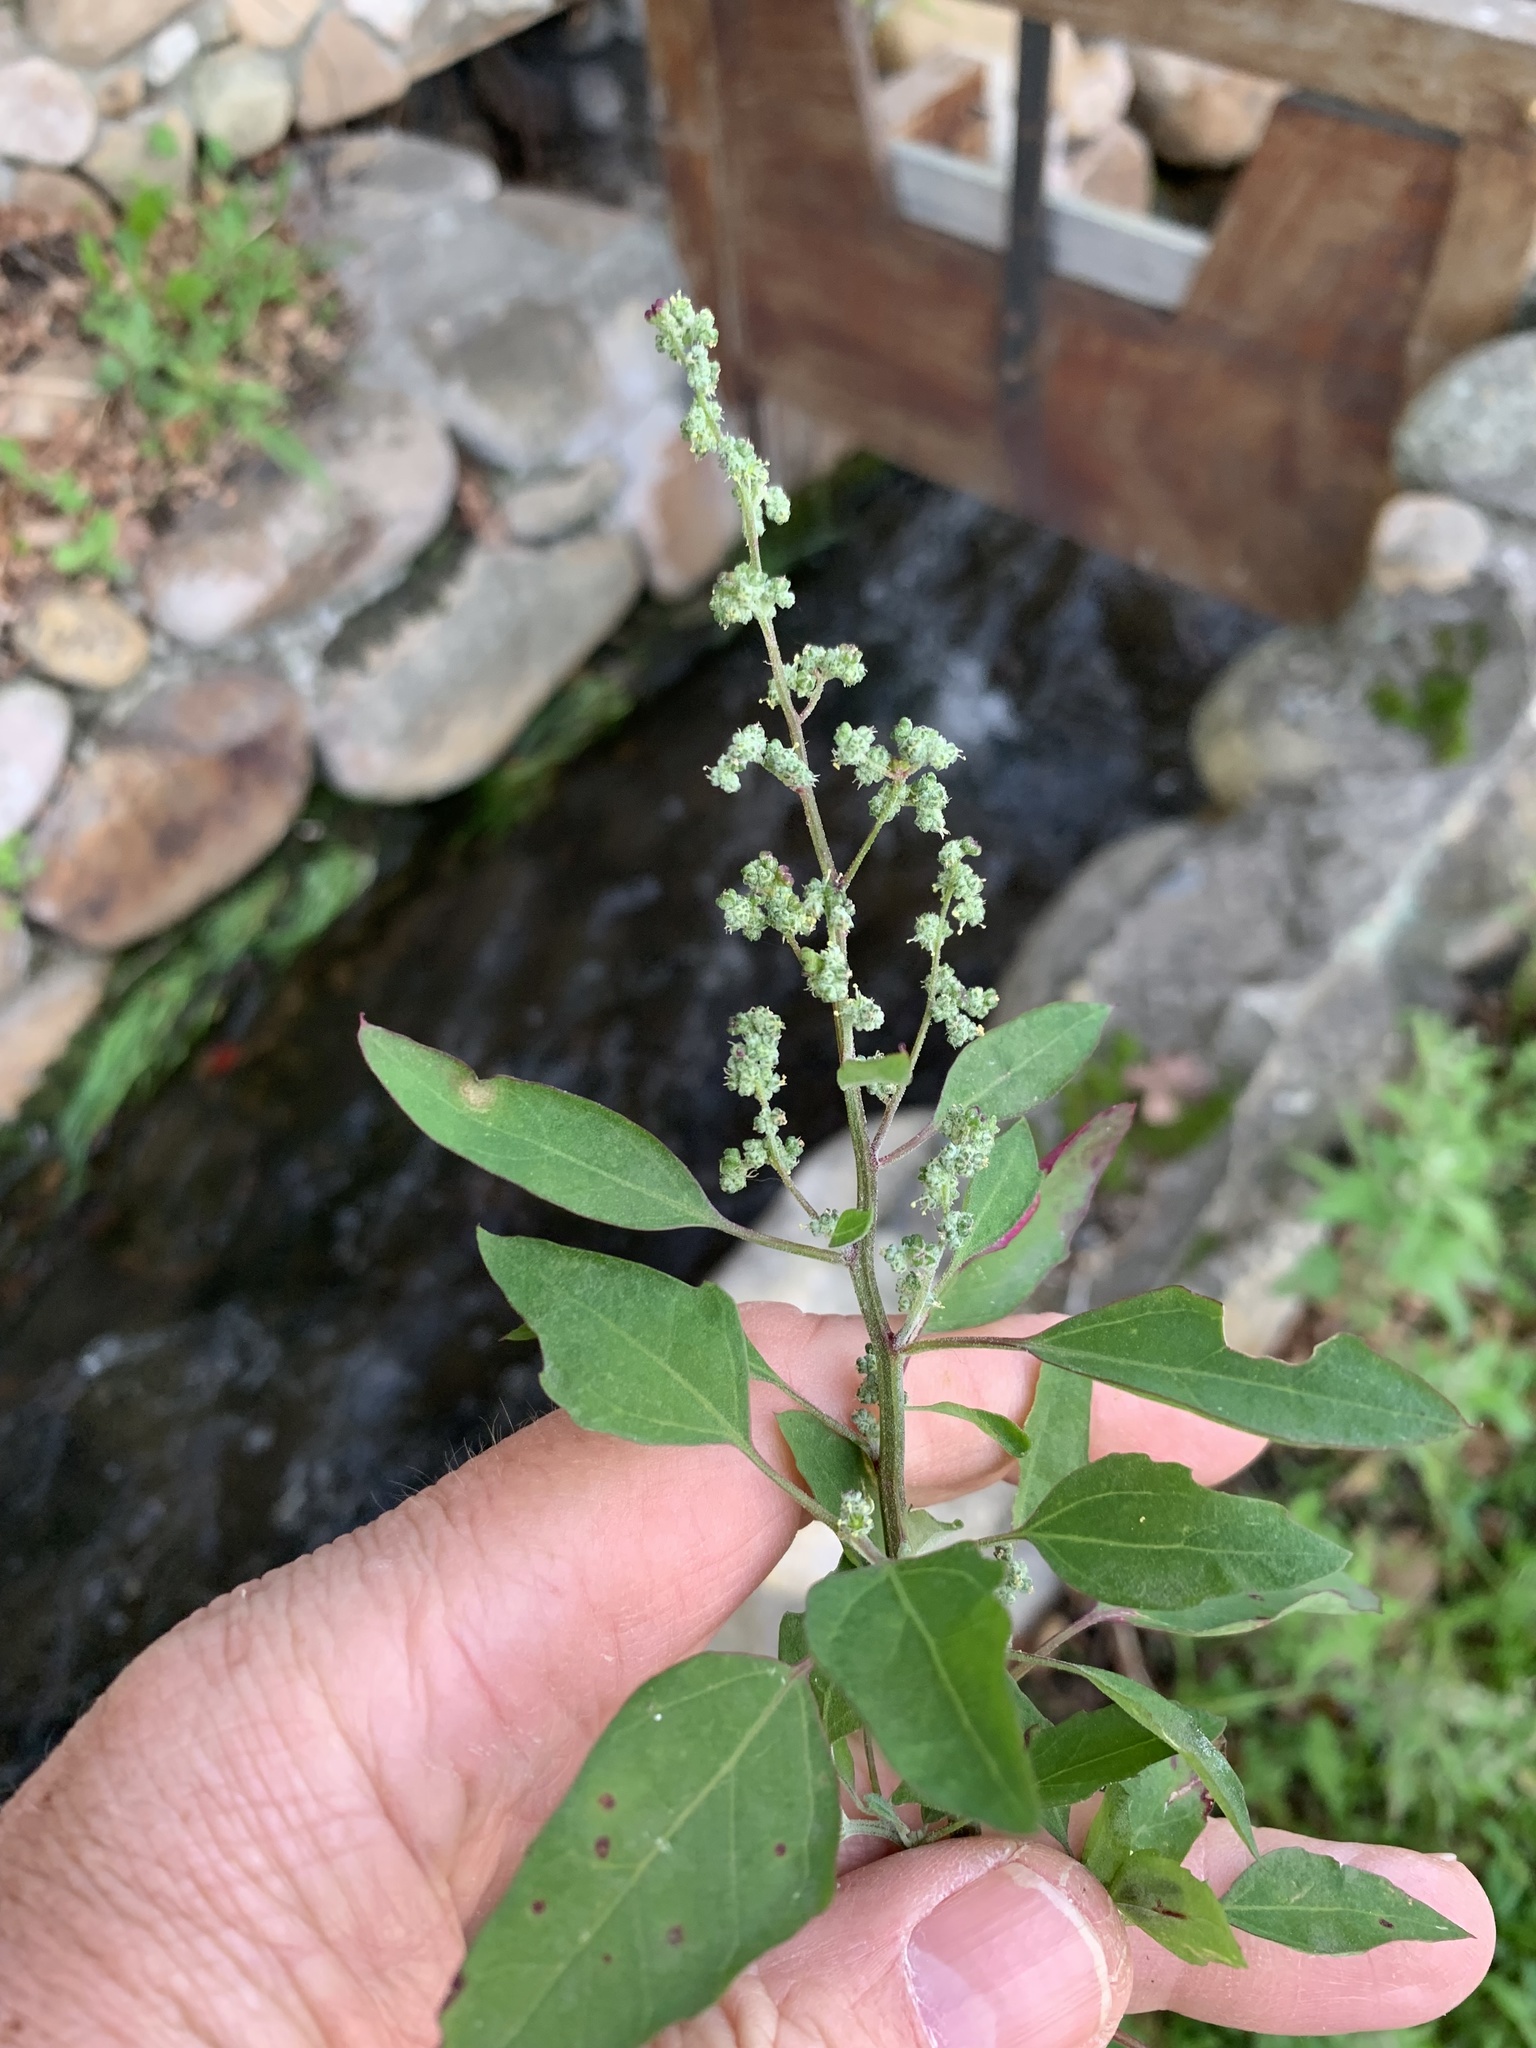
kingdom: Plantae
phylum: Tracheophyta
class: Magnoliopsida
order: Caryophyllales
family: Amaranthaceae
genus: Chenopodium
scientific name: Chenopodium album
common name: Fat-hen
